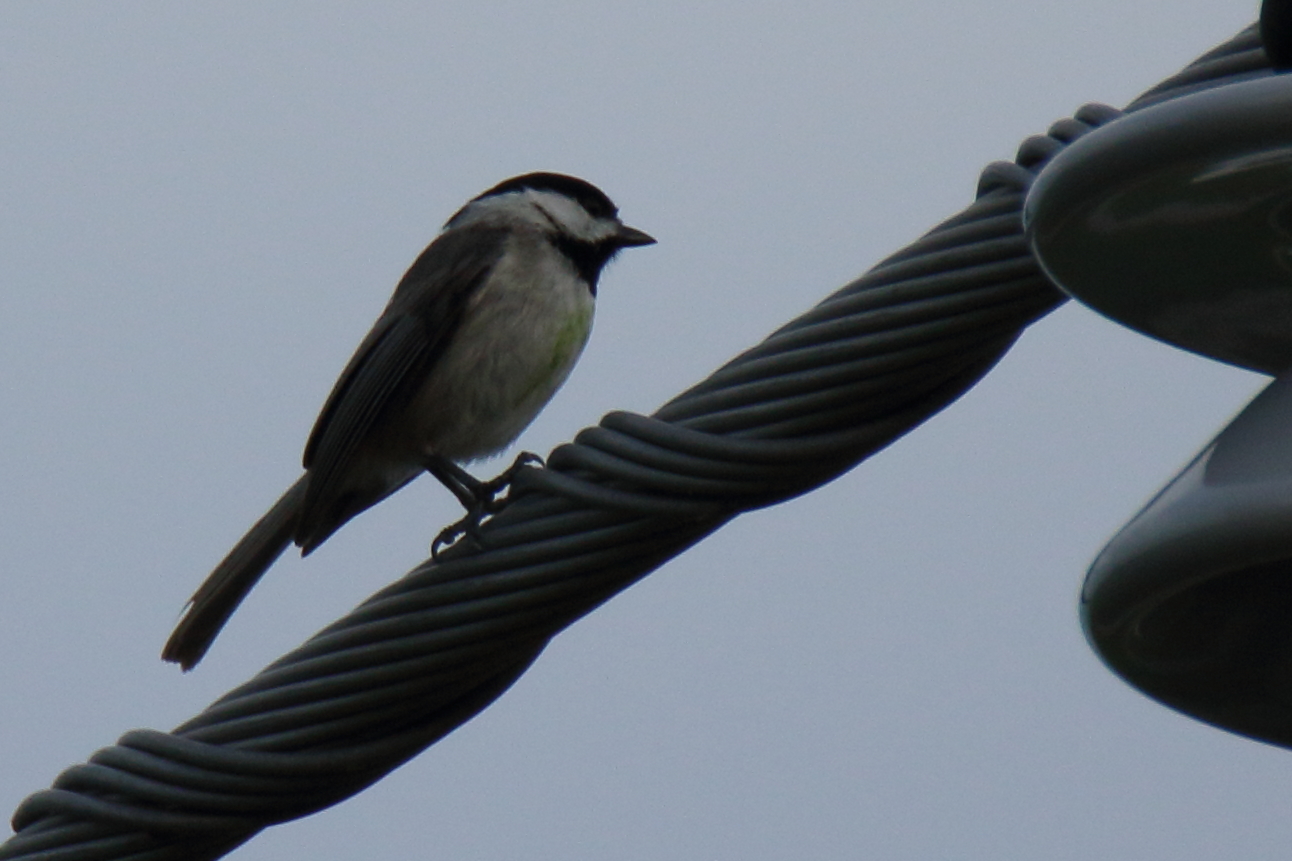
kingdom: Animalia
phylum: Chordata
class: Aves
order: Passeriformes
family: Paridae
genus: Poecile
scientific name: Poecile carolinensis
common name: Carolina chickadee
